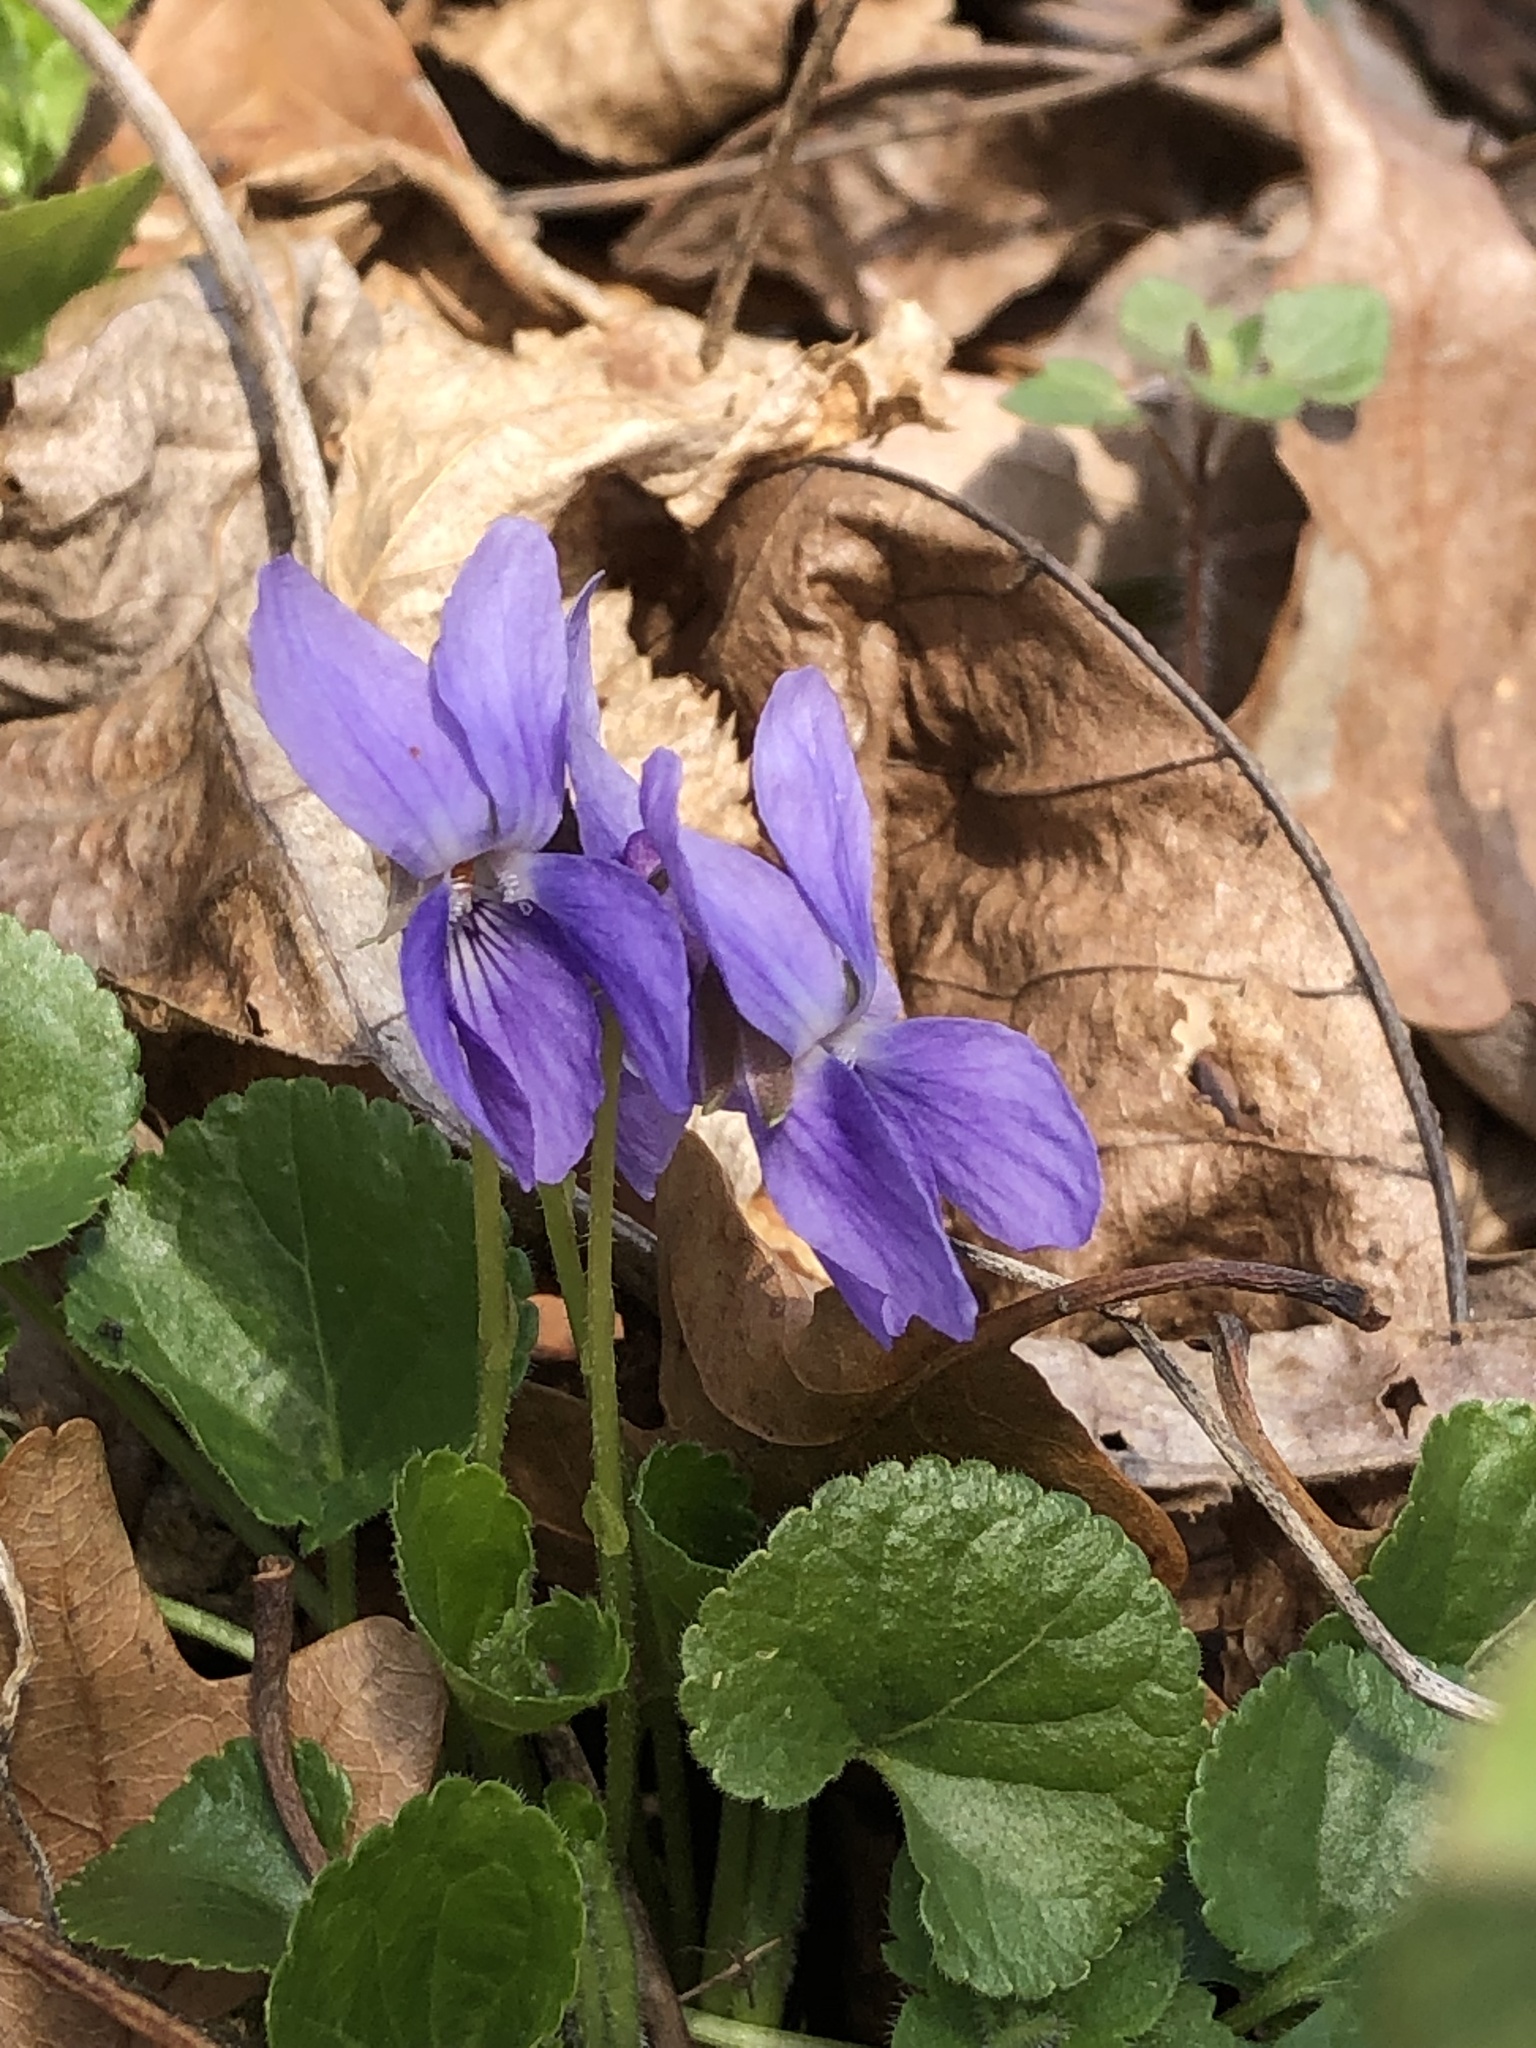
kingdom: Plantae
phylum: Tracheophyta
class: Magnoliopsida
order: Malpighiales
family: Violaceae
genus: Viola
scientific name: Viola odorata
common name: Sweet violet
